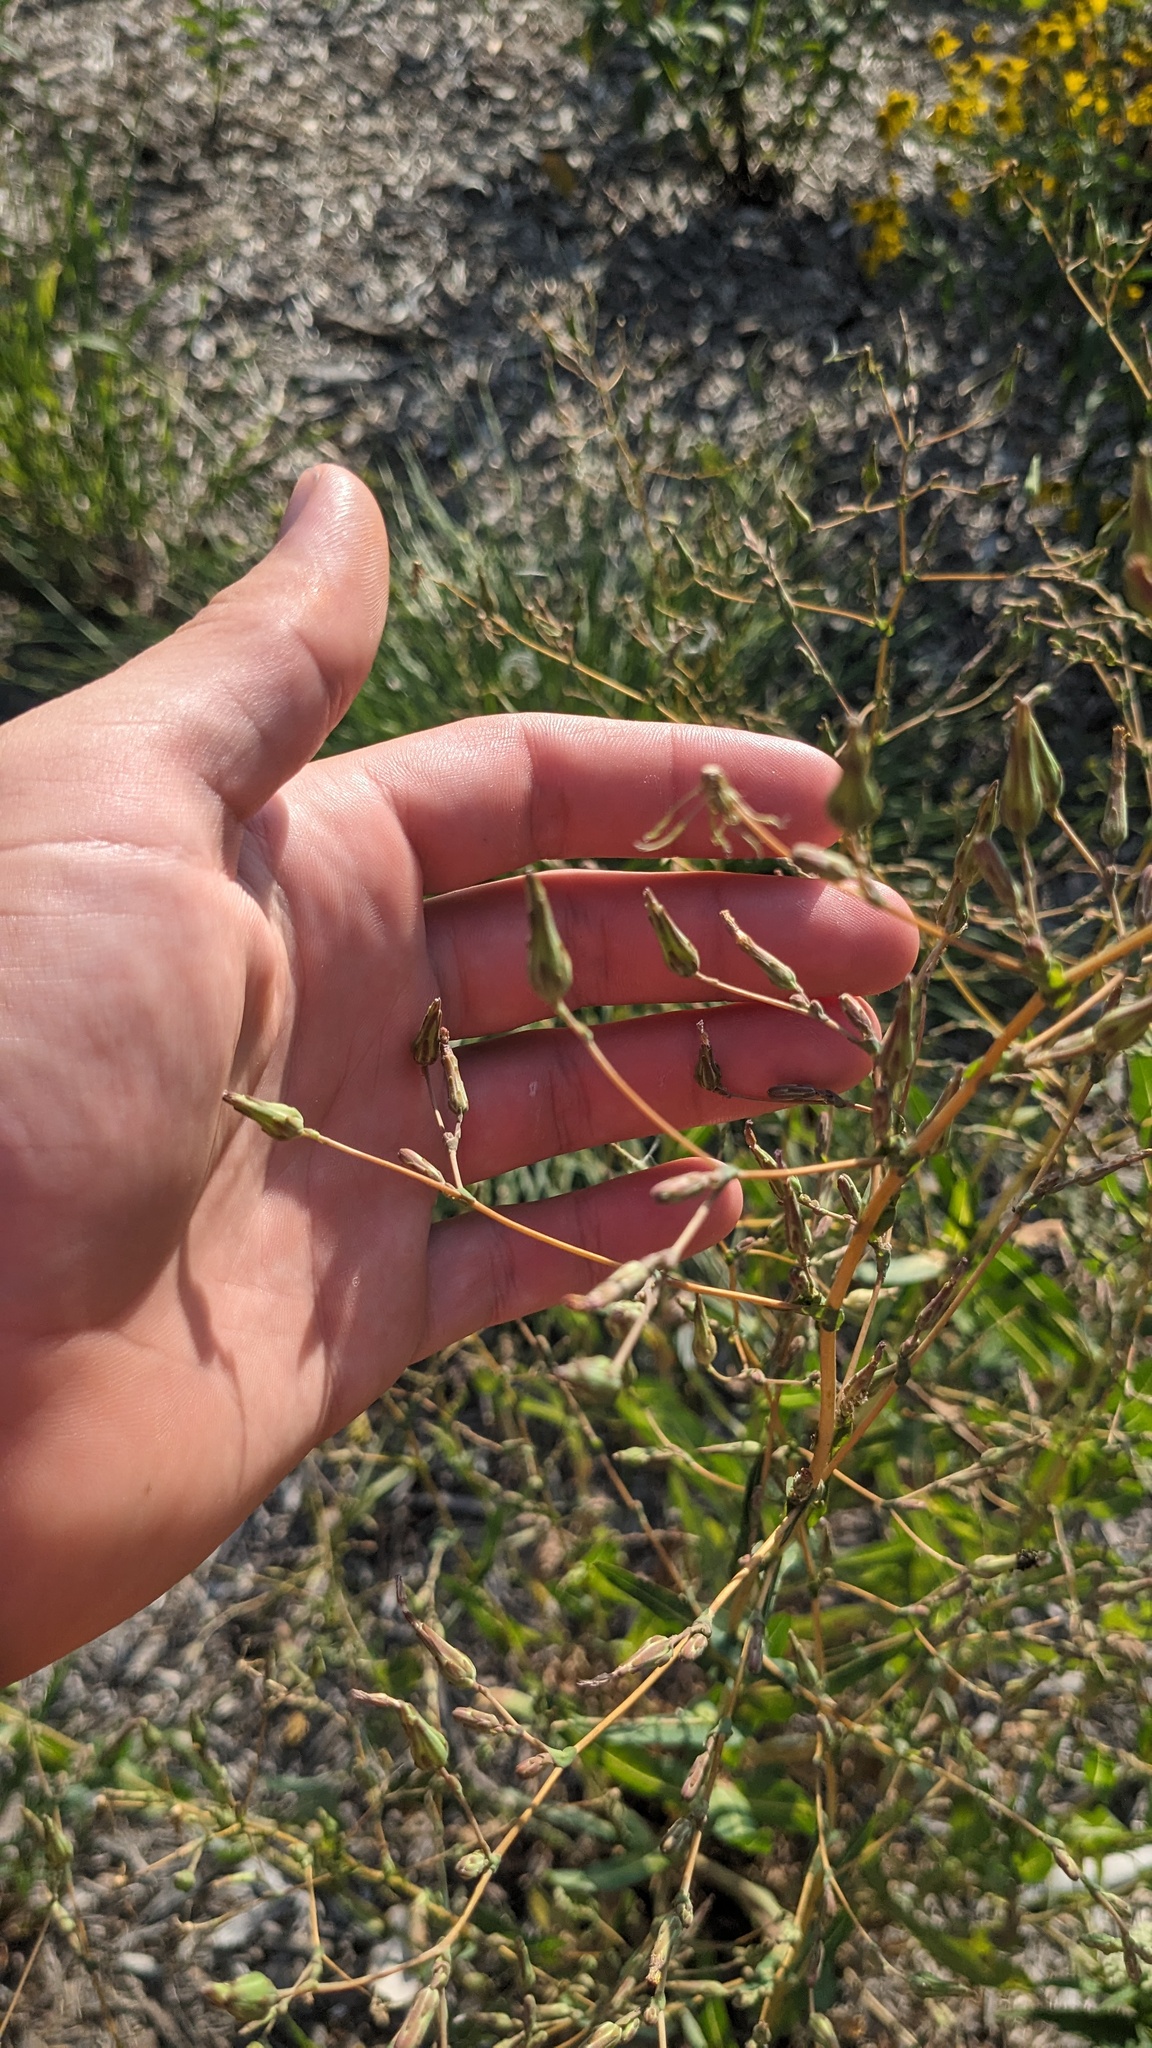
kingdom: Plantae
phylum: Tracheophyta
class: Magnoliopsida
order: Asterales
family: Asteraceae
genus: Lactuca
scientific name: Lactuca serriola
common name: Prickly lettuce
